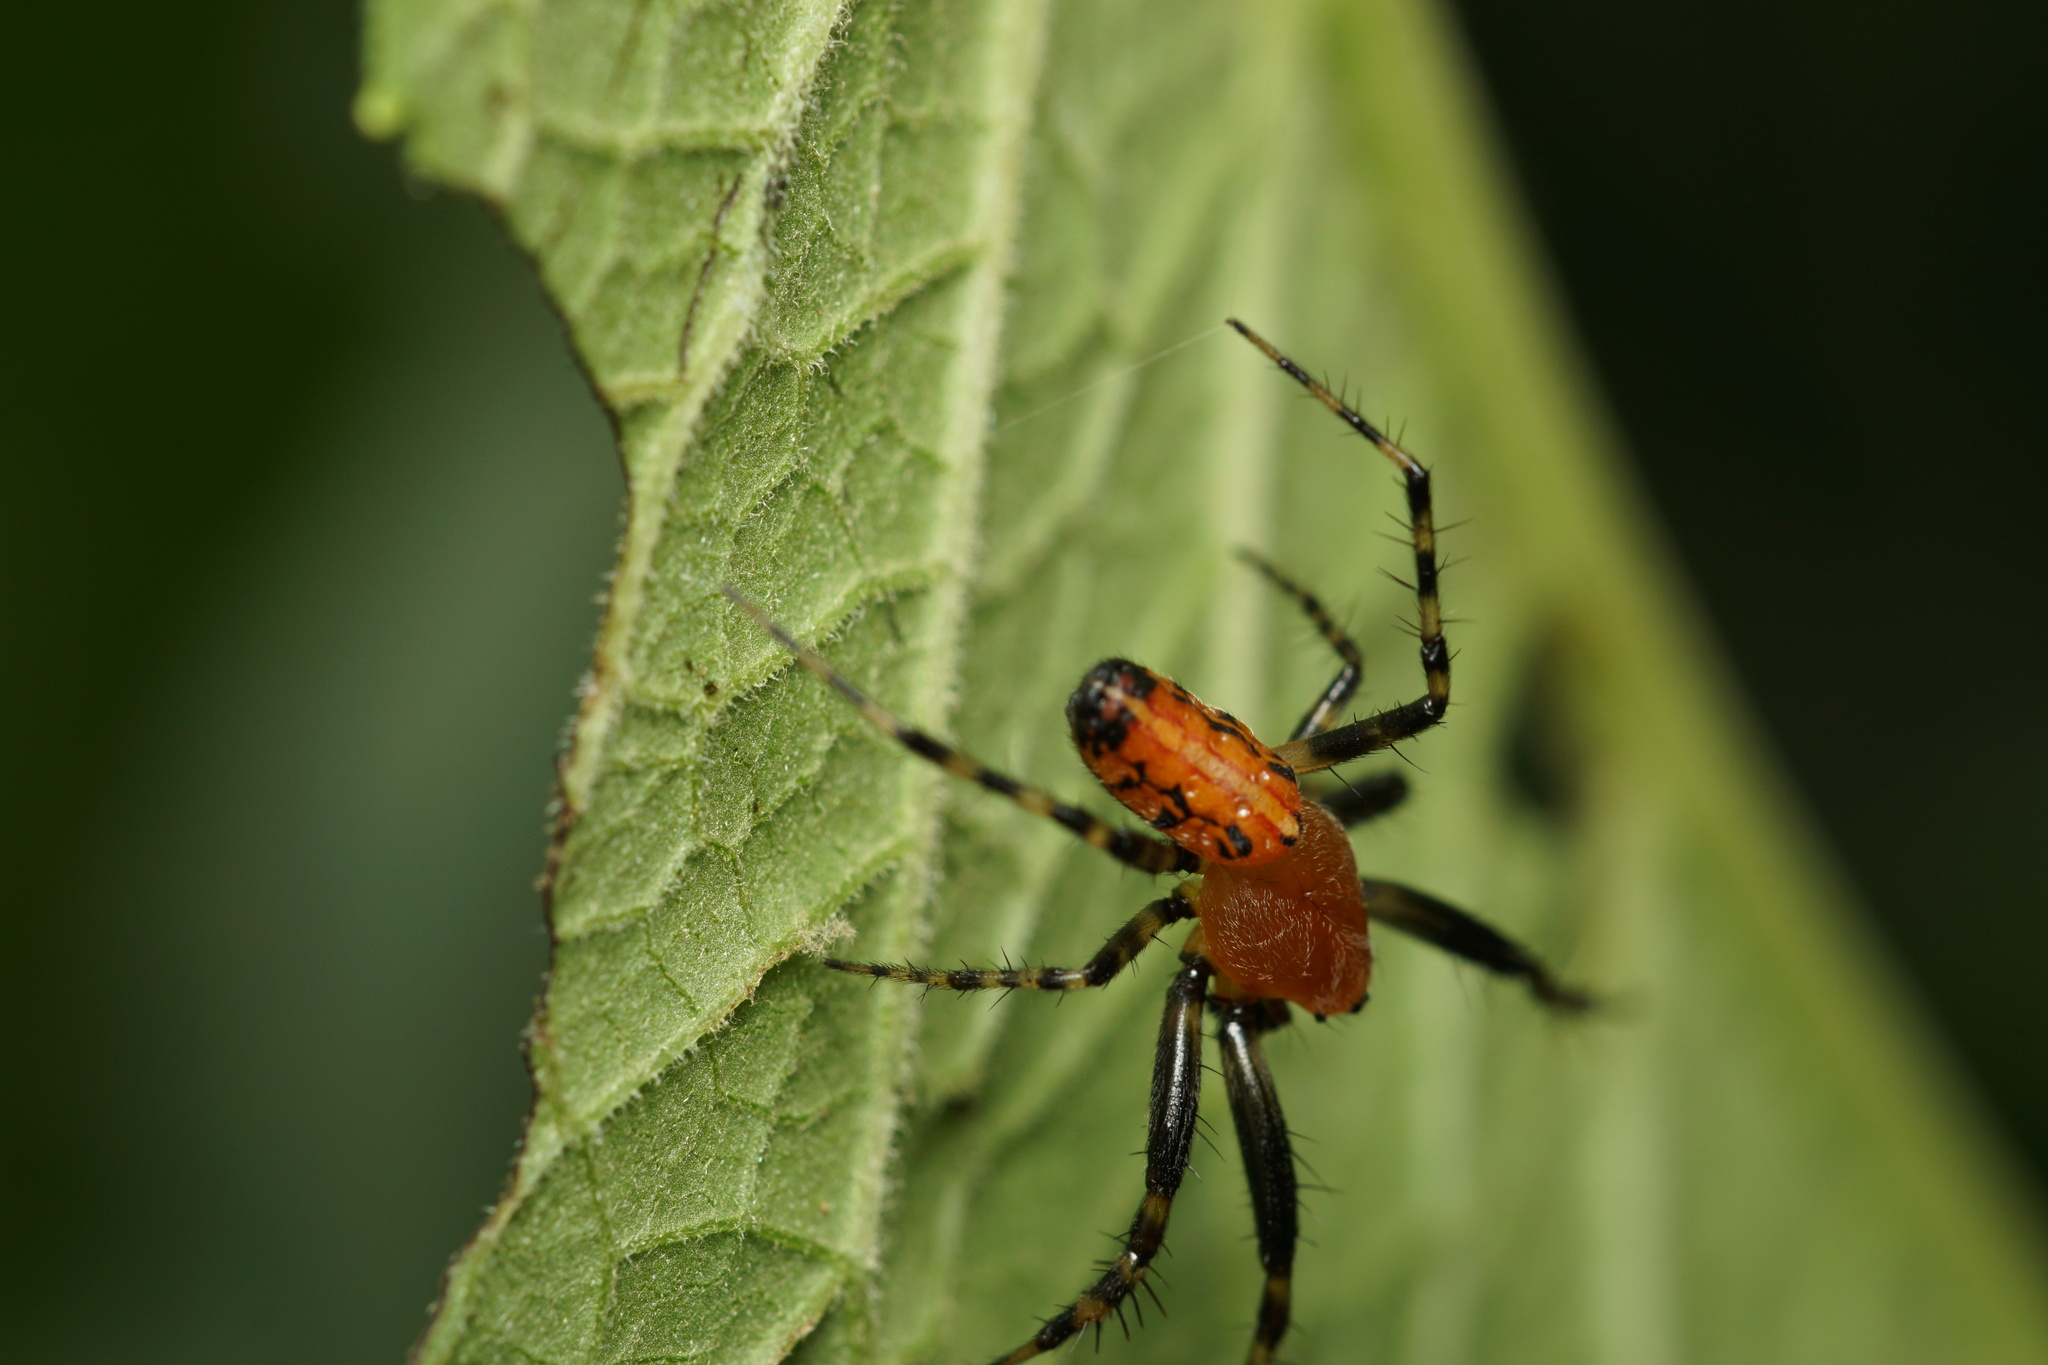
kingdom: Animalia
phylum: Arthropoda
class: Arachnida
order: Araneae
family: Araneidae
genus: Alpaida
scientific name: Alpaida grayi
